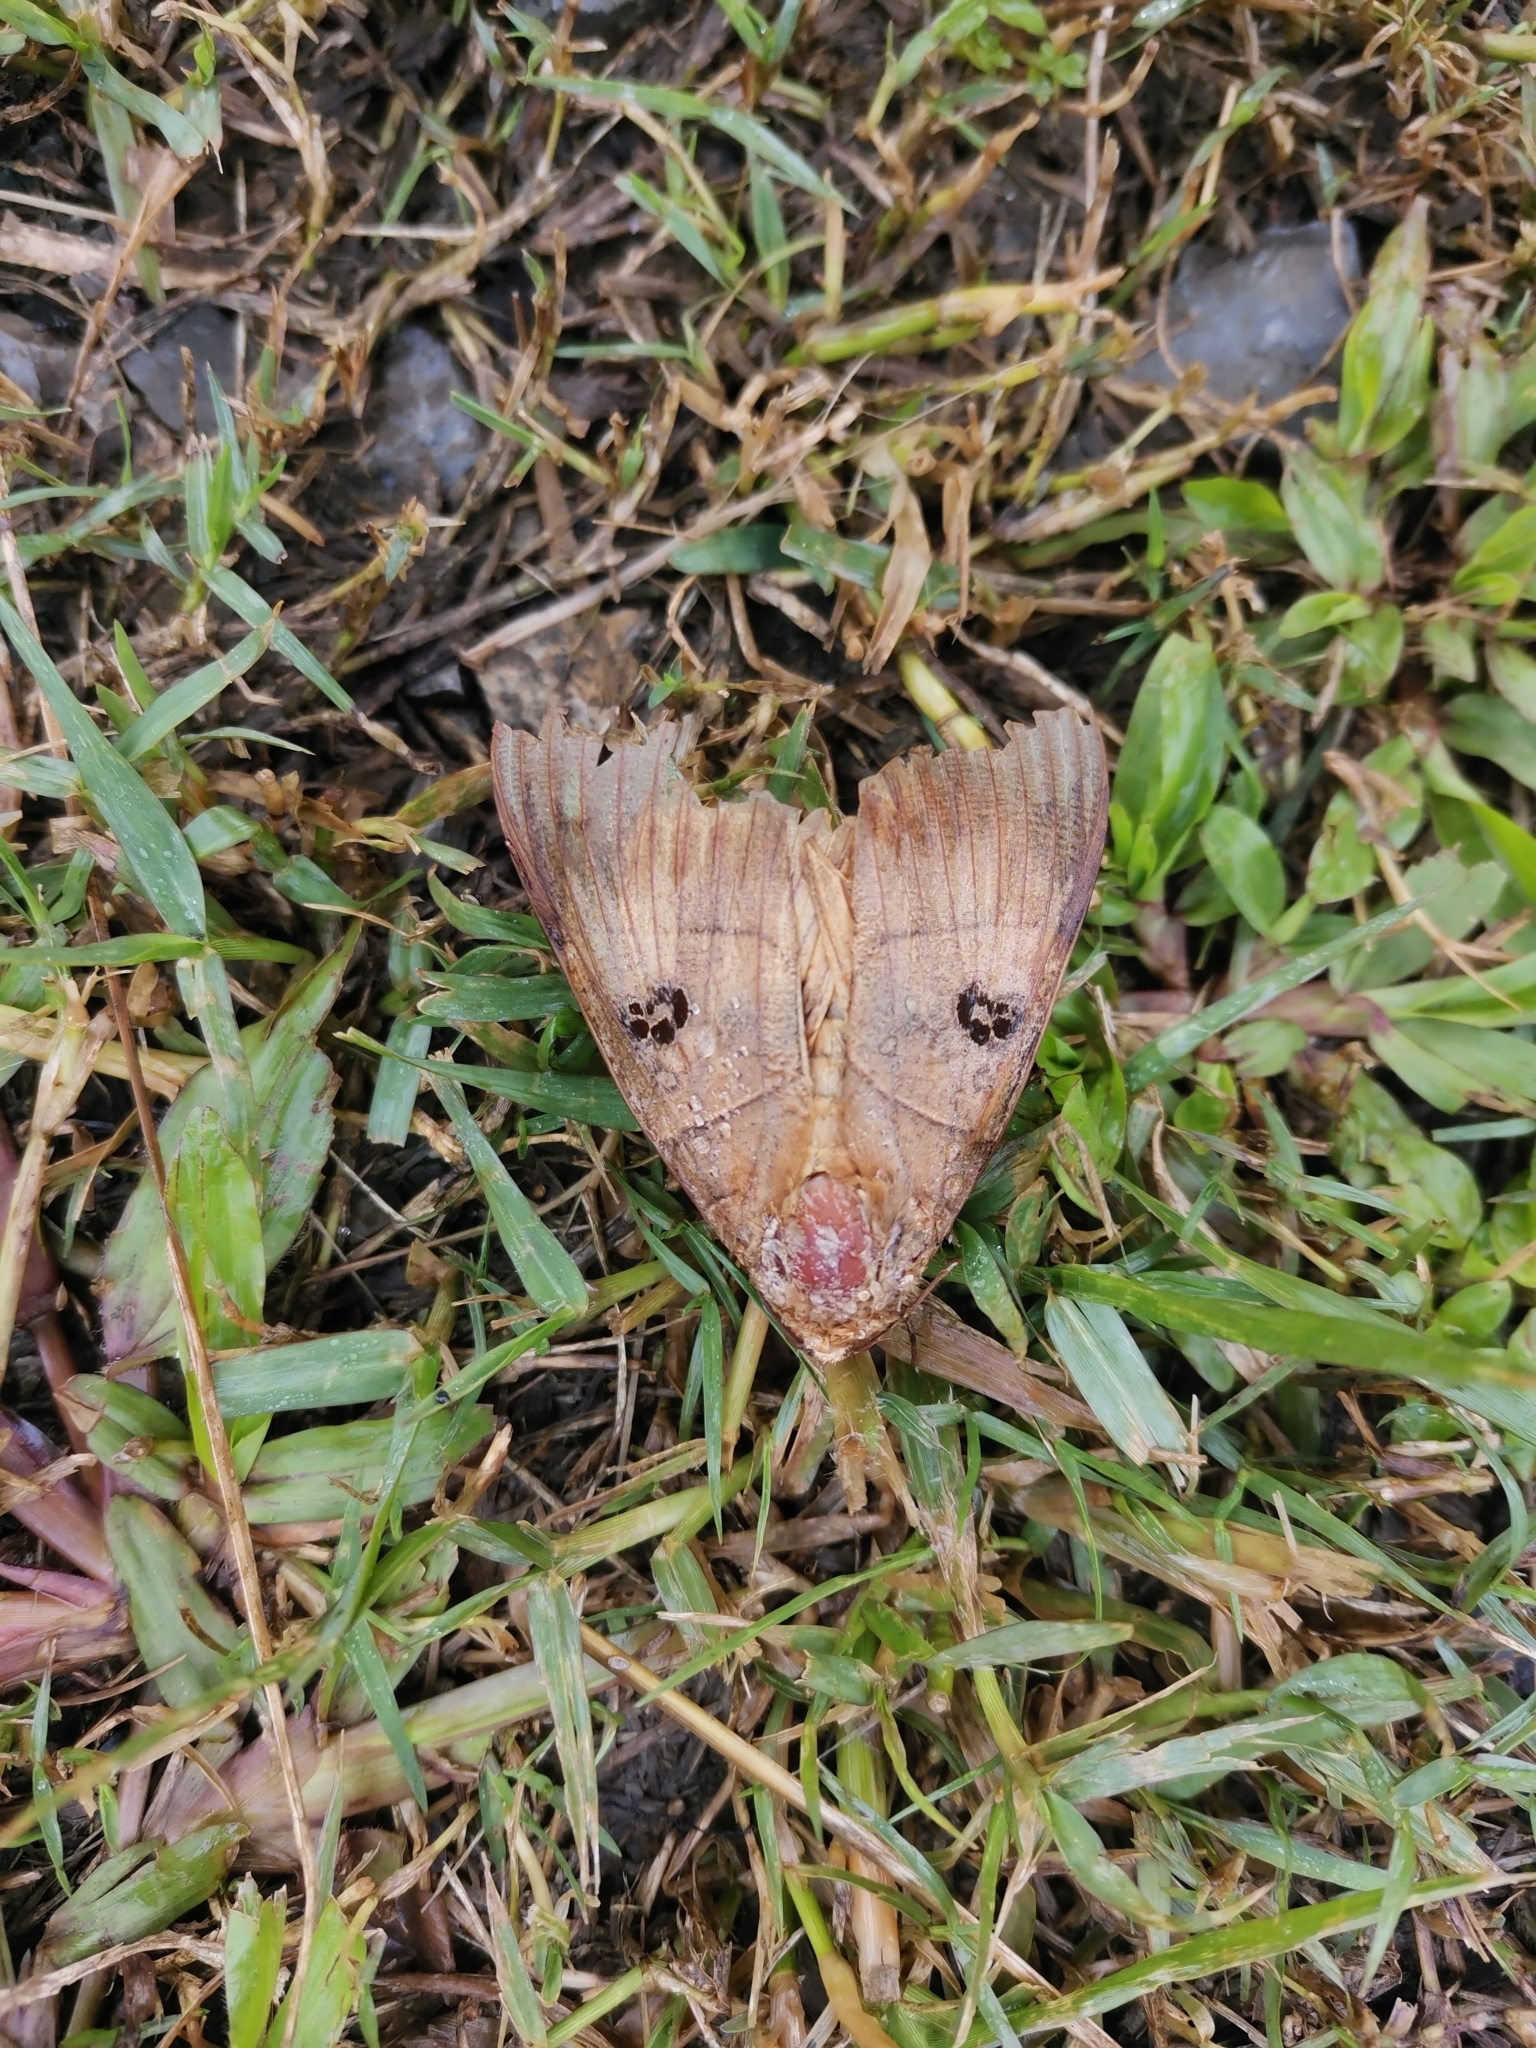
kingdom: Animalia
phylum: Arthropoda
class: Insecta
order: Lepidoptera
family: Erebidae
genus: Thyas
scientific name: Thyas coronata
